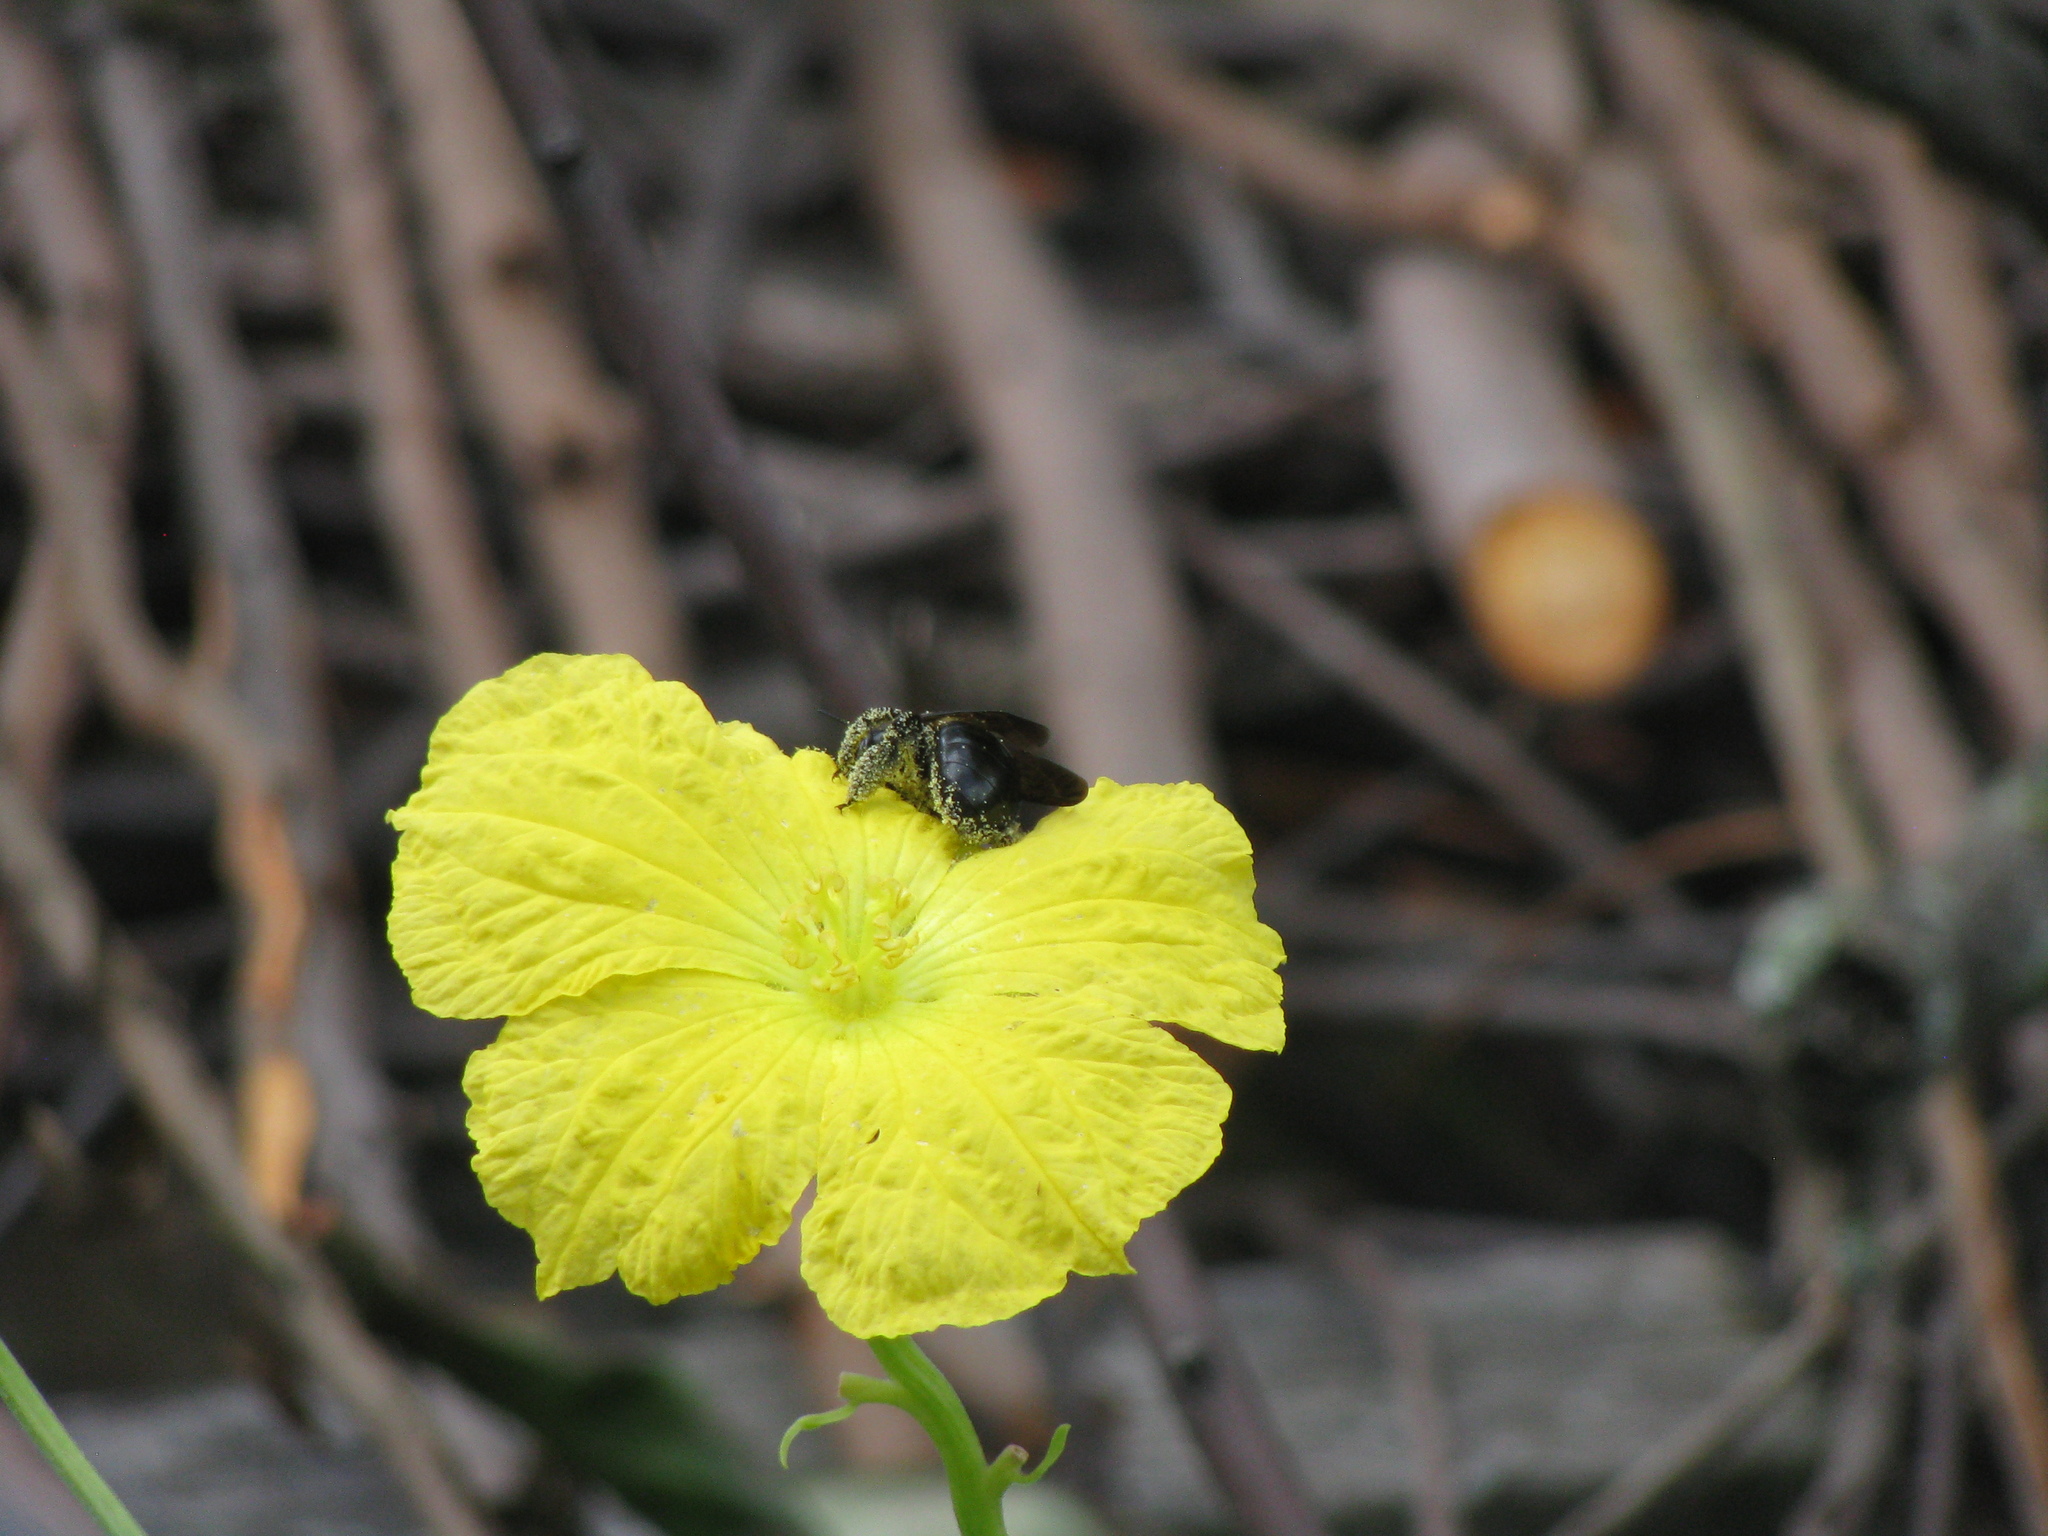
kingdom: Animalia
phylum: Arthropoda
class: Insecta
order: Hymenoptera
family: Apidae
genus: Xylocopa
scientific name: Xylocopa virginica
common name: Carpenter bee
